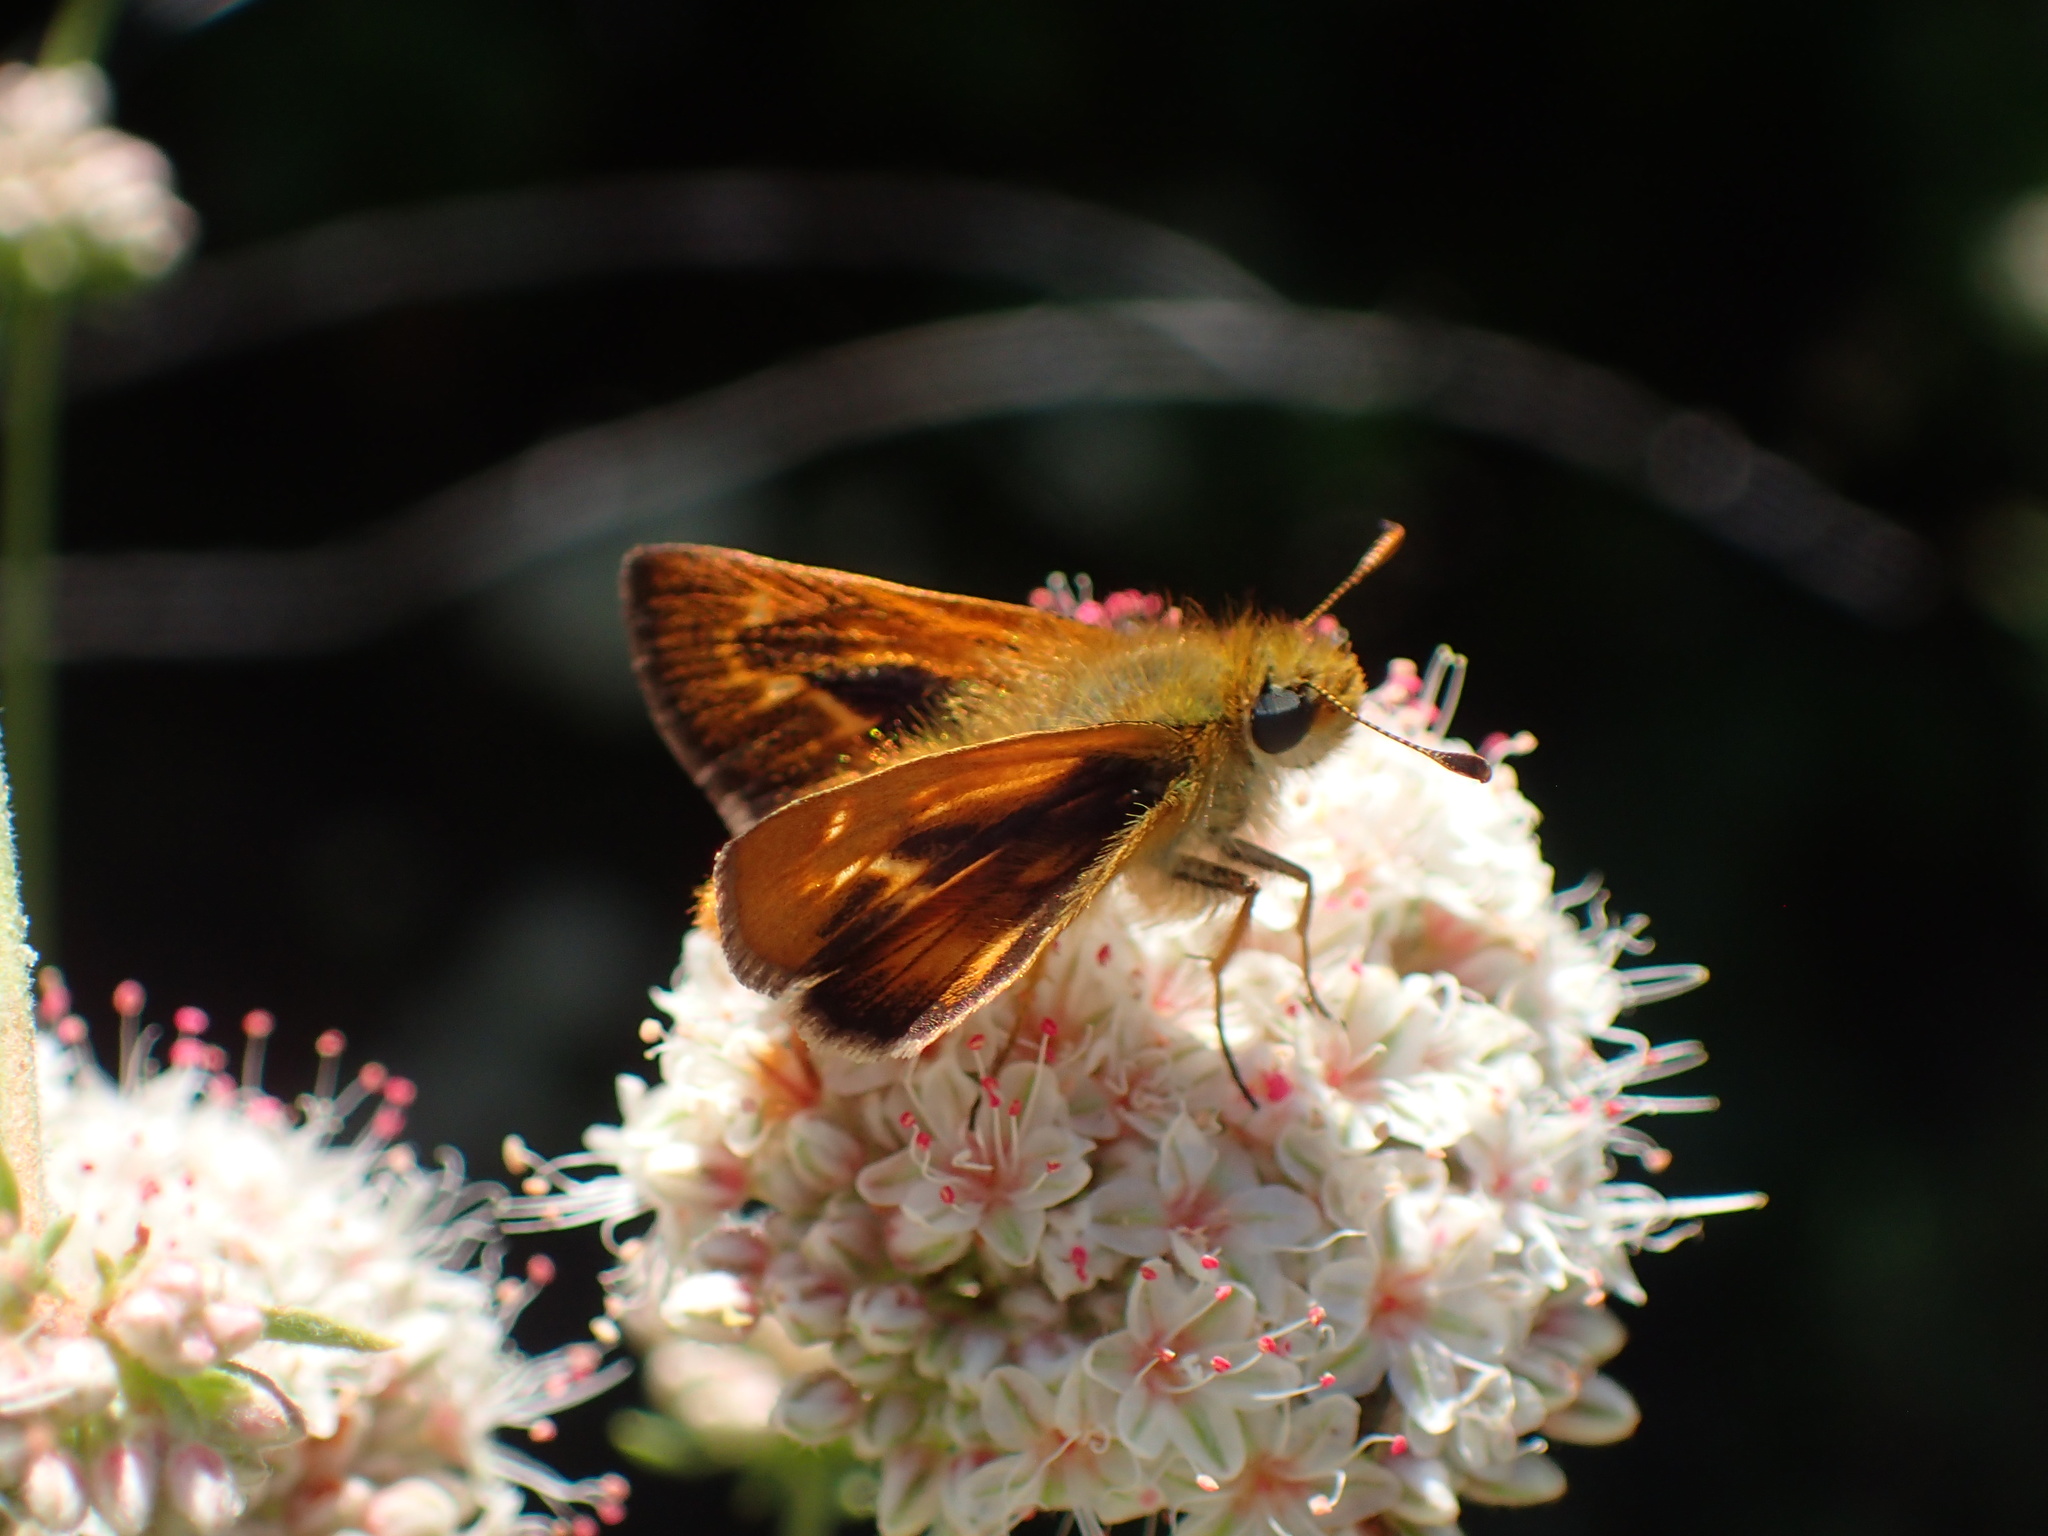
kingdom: Animalia
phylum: Arthropoda
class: Insecta
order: Lepidoptera
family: Hesperiidae
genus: Ochlodes
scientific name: Ochlodes agricola
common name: Rural skipper
